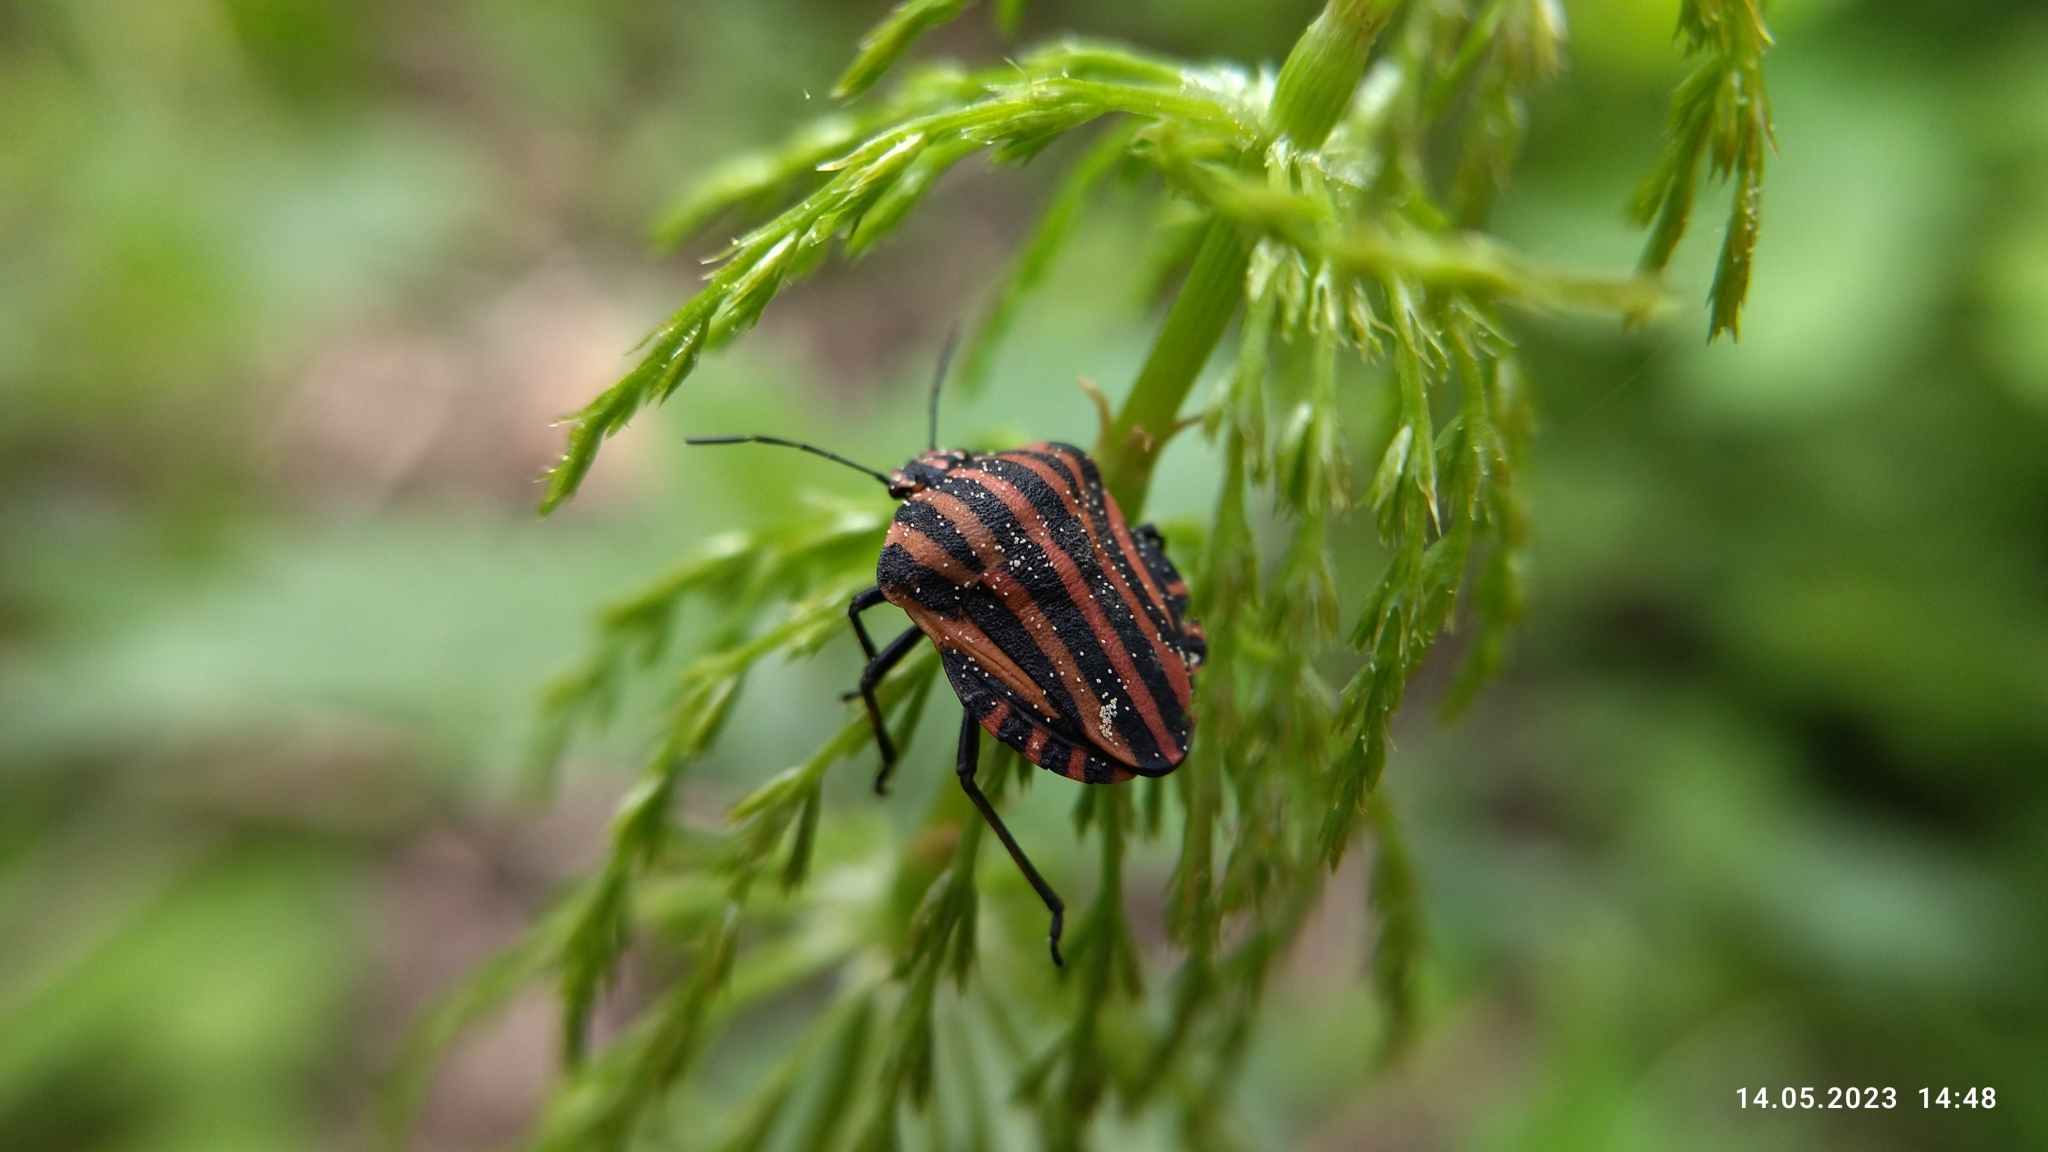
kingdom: Animalia
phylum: Arthropoda
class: Insecta
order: Hemiptera
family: Pentatomidae
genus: Graphosoma
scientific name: Graphosoma italicum
